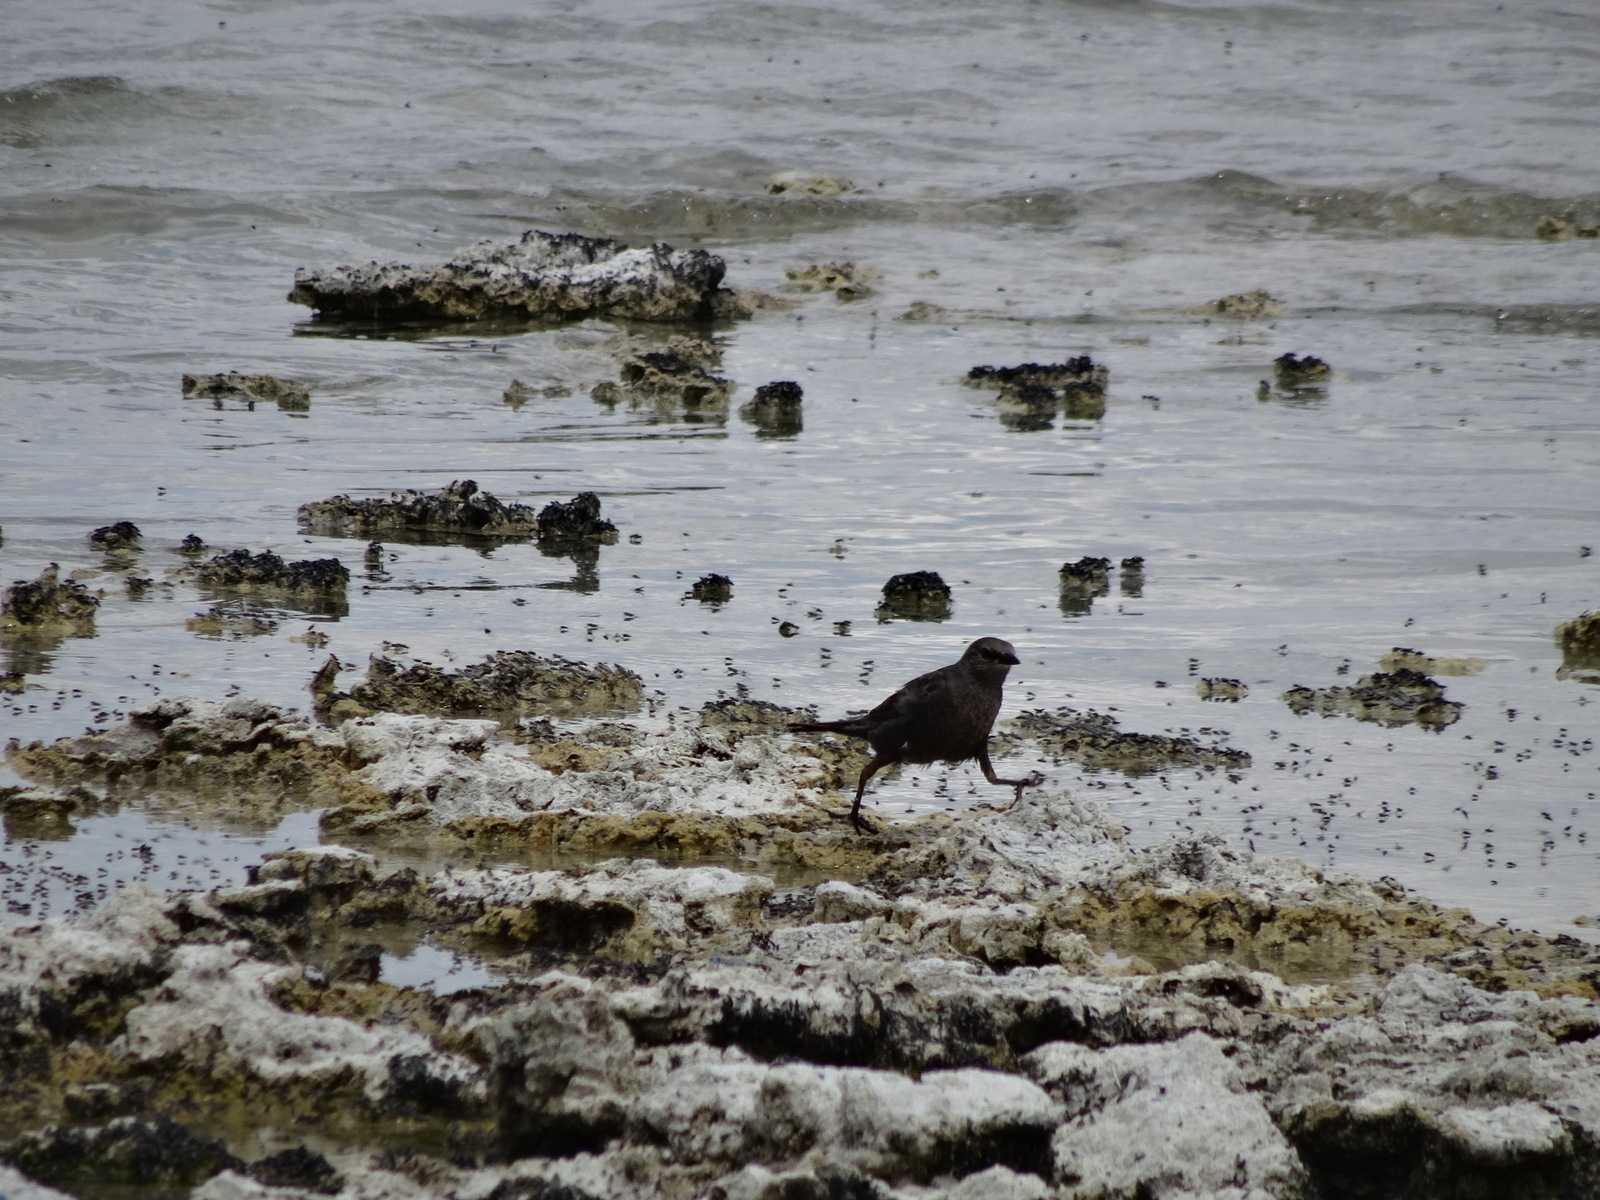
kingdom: Animalia
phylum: Chordata
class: Aves
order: Passeriformes
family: Icteridae
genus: Euphagus
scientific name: Euphagus cyanocephalus
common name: Brewer's blackbird
